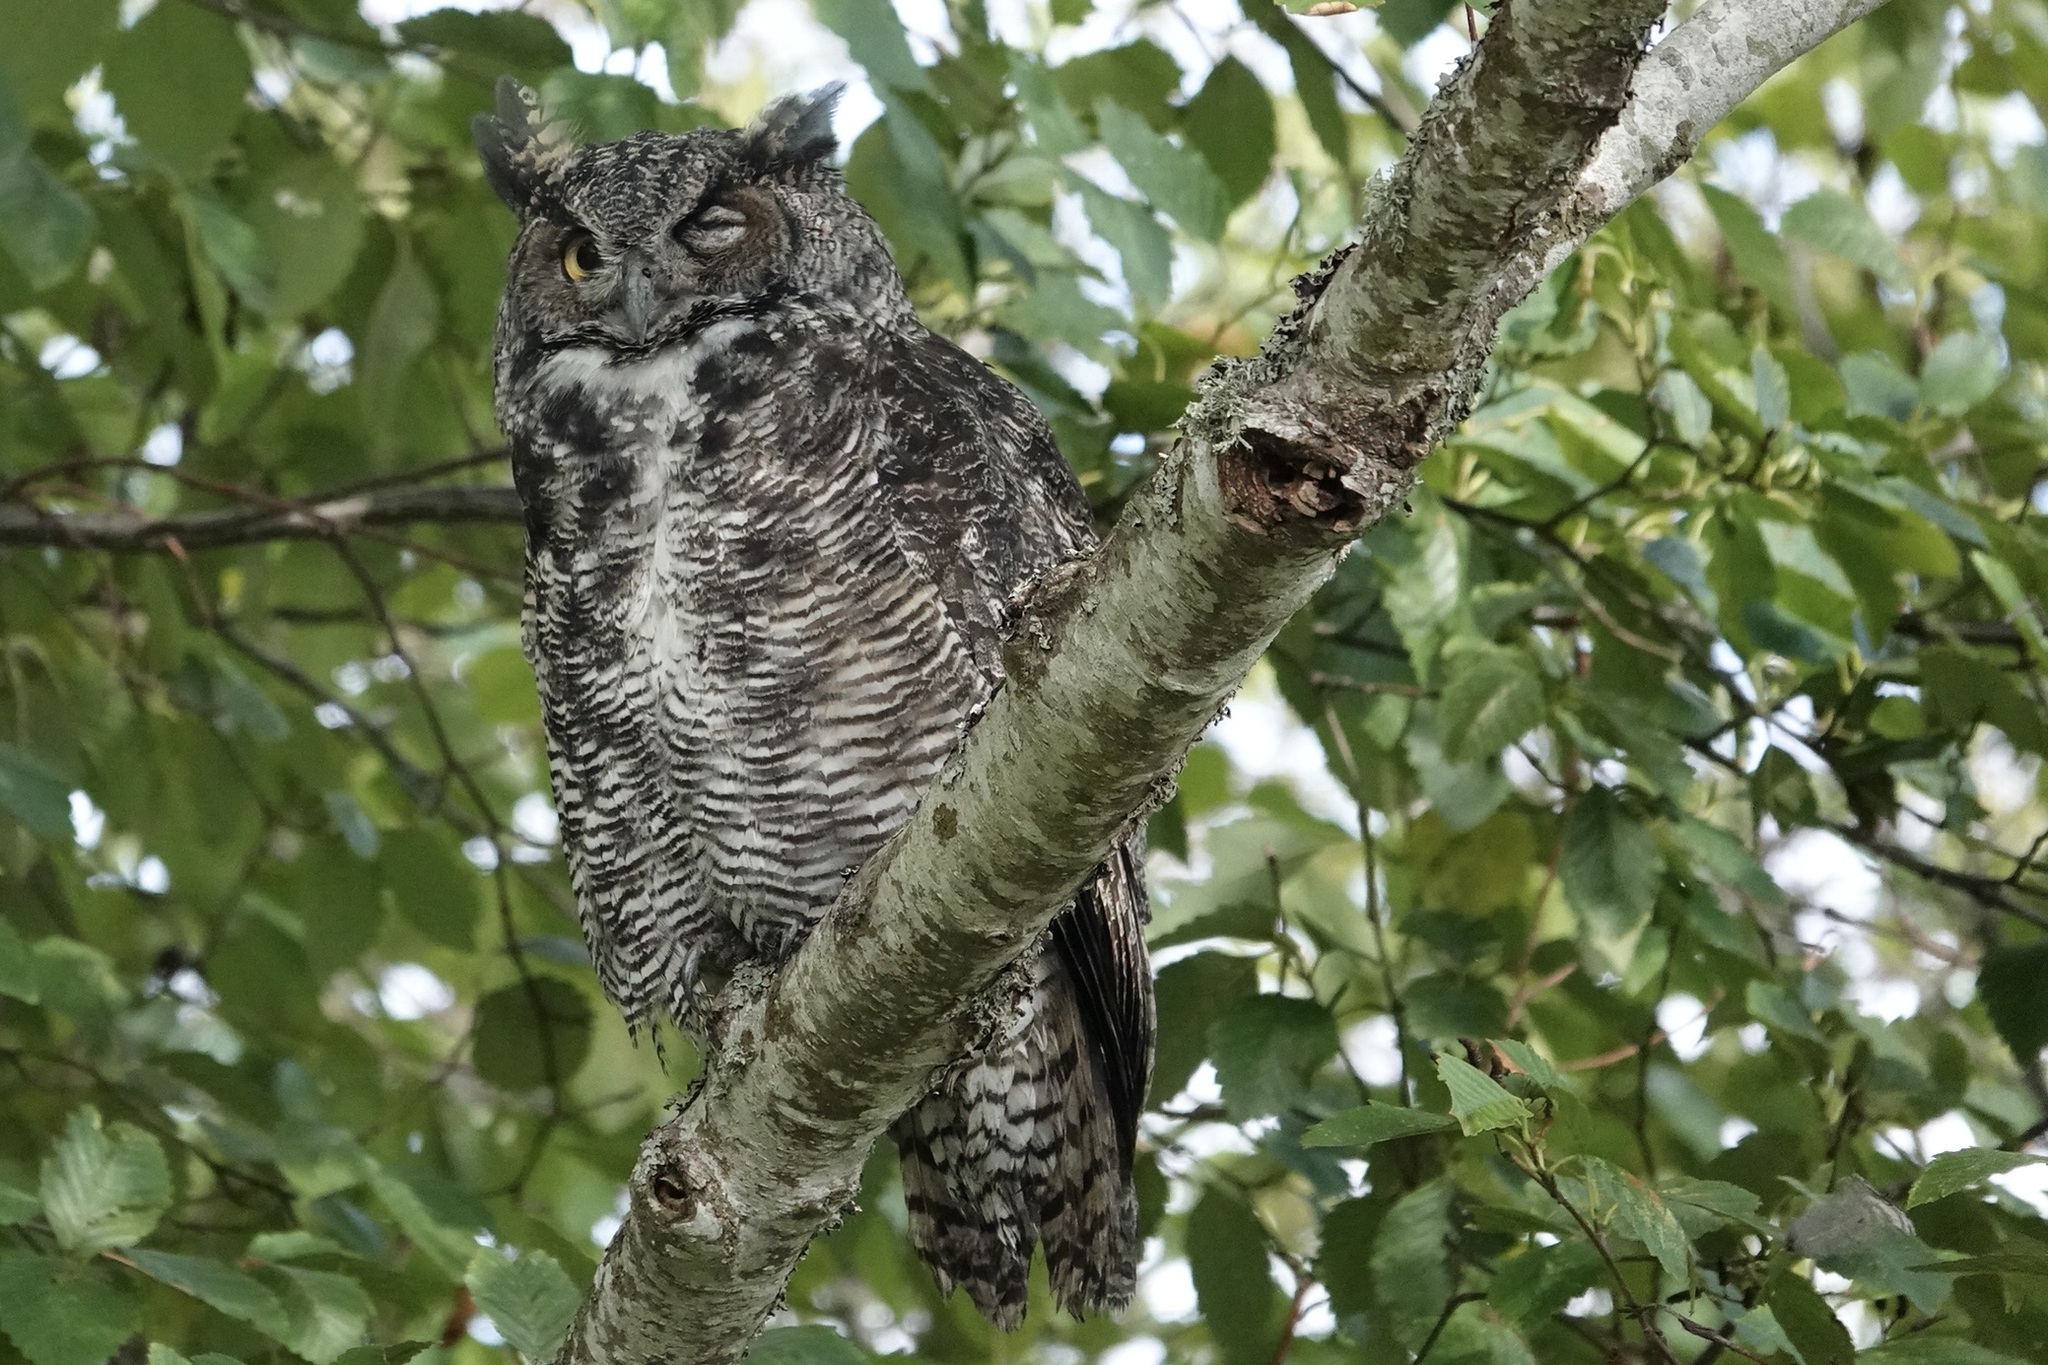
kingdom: Animalia
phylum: Chordata
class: Aves
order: Strigiformes
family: Strigidae
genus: Bubo
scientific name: Bubo virginianus
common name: Great horned owl
